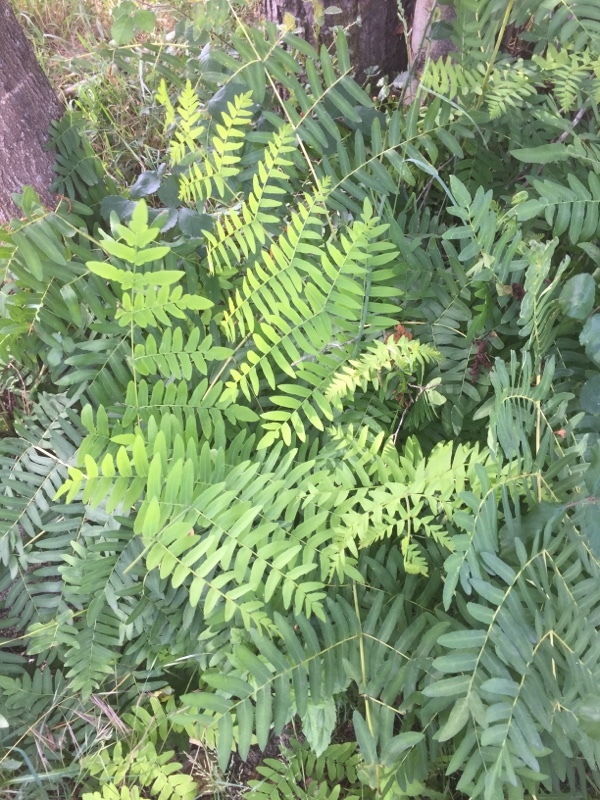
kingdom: Plantae
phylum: Tracheophyta
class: Polypodiopsida
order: Osmundales
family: Osmundaceae
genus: Osmunda
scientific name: Osmunda regalis
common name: Royal fern
